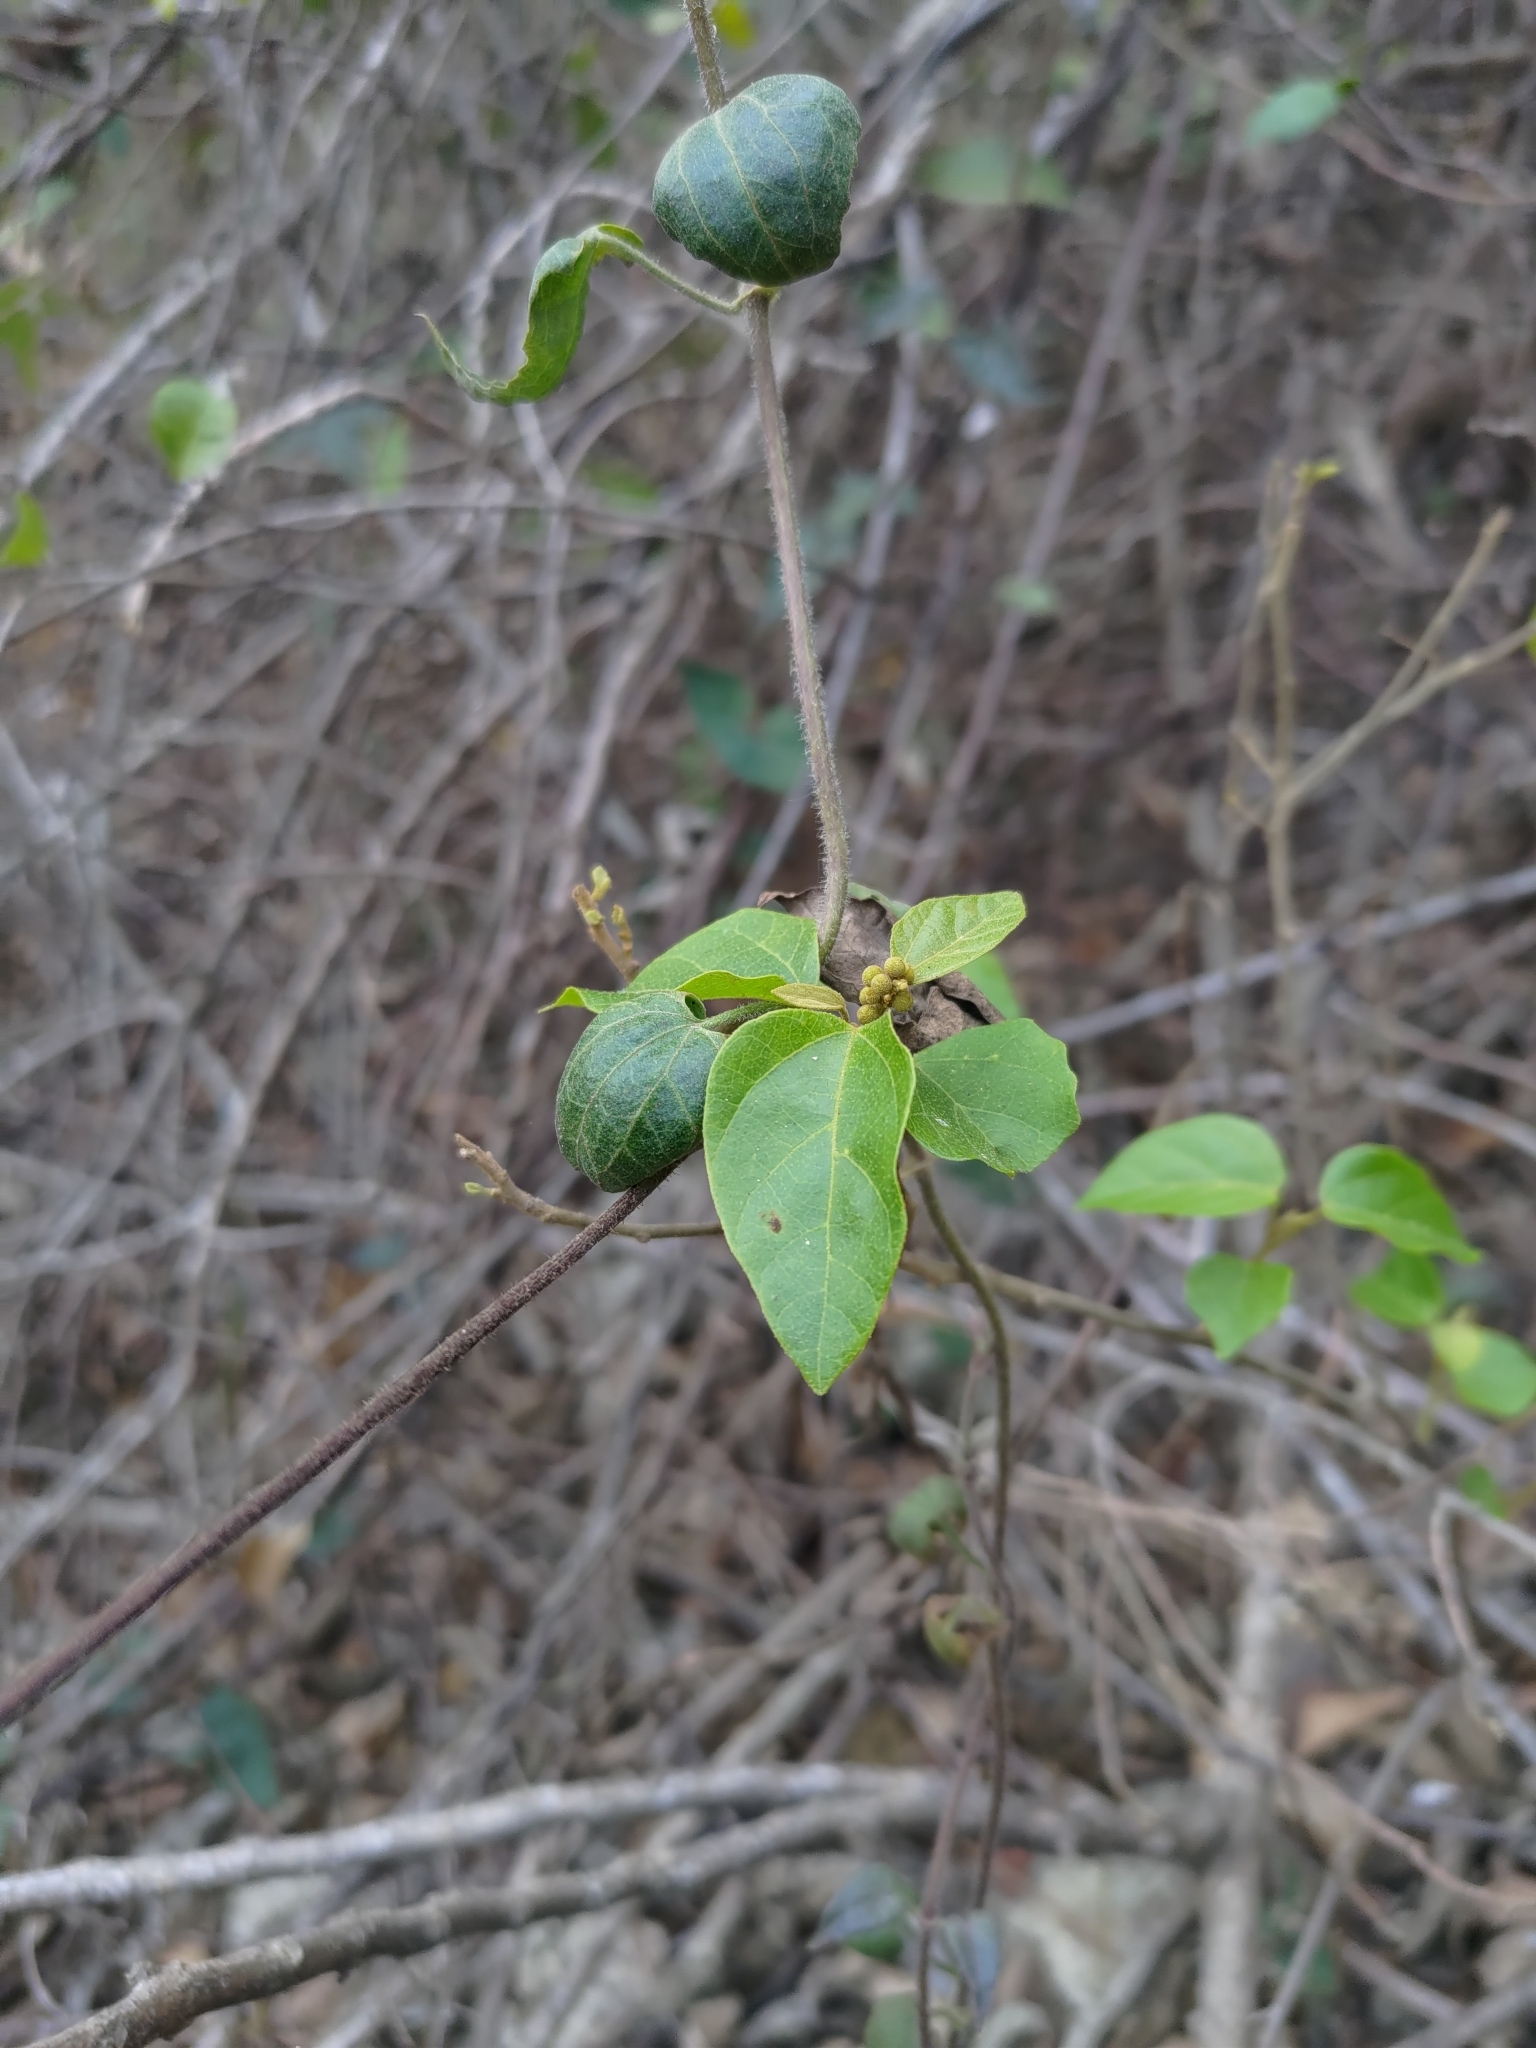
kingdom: Plantae
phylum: Tracheophyta
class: Magnoliopsida
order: Malpighiales
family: Euphorbiaceae
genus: Mallotus
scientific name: Mallotus repandus
